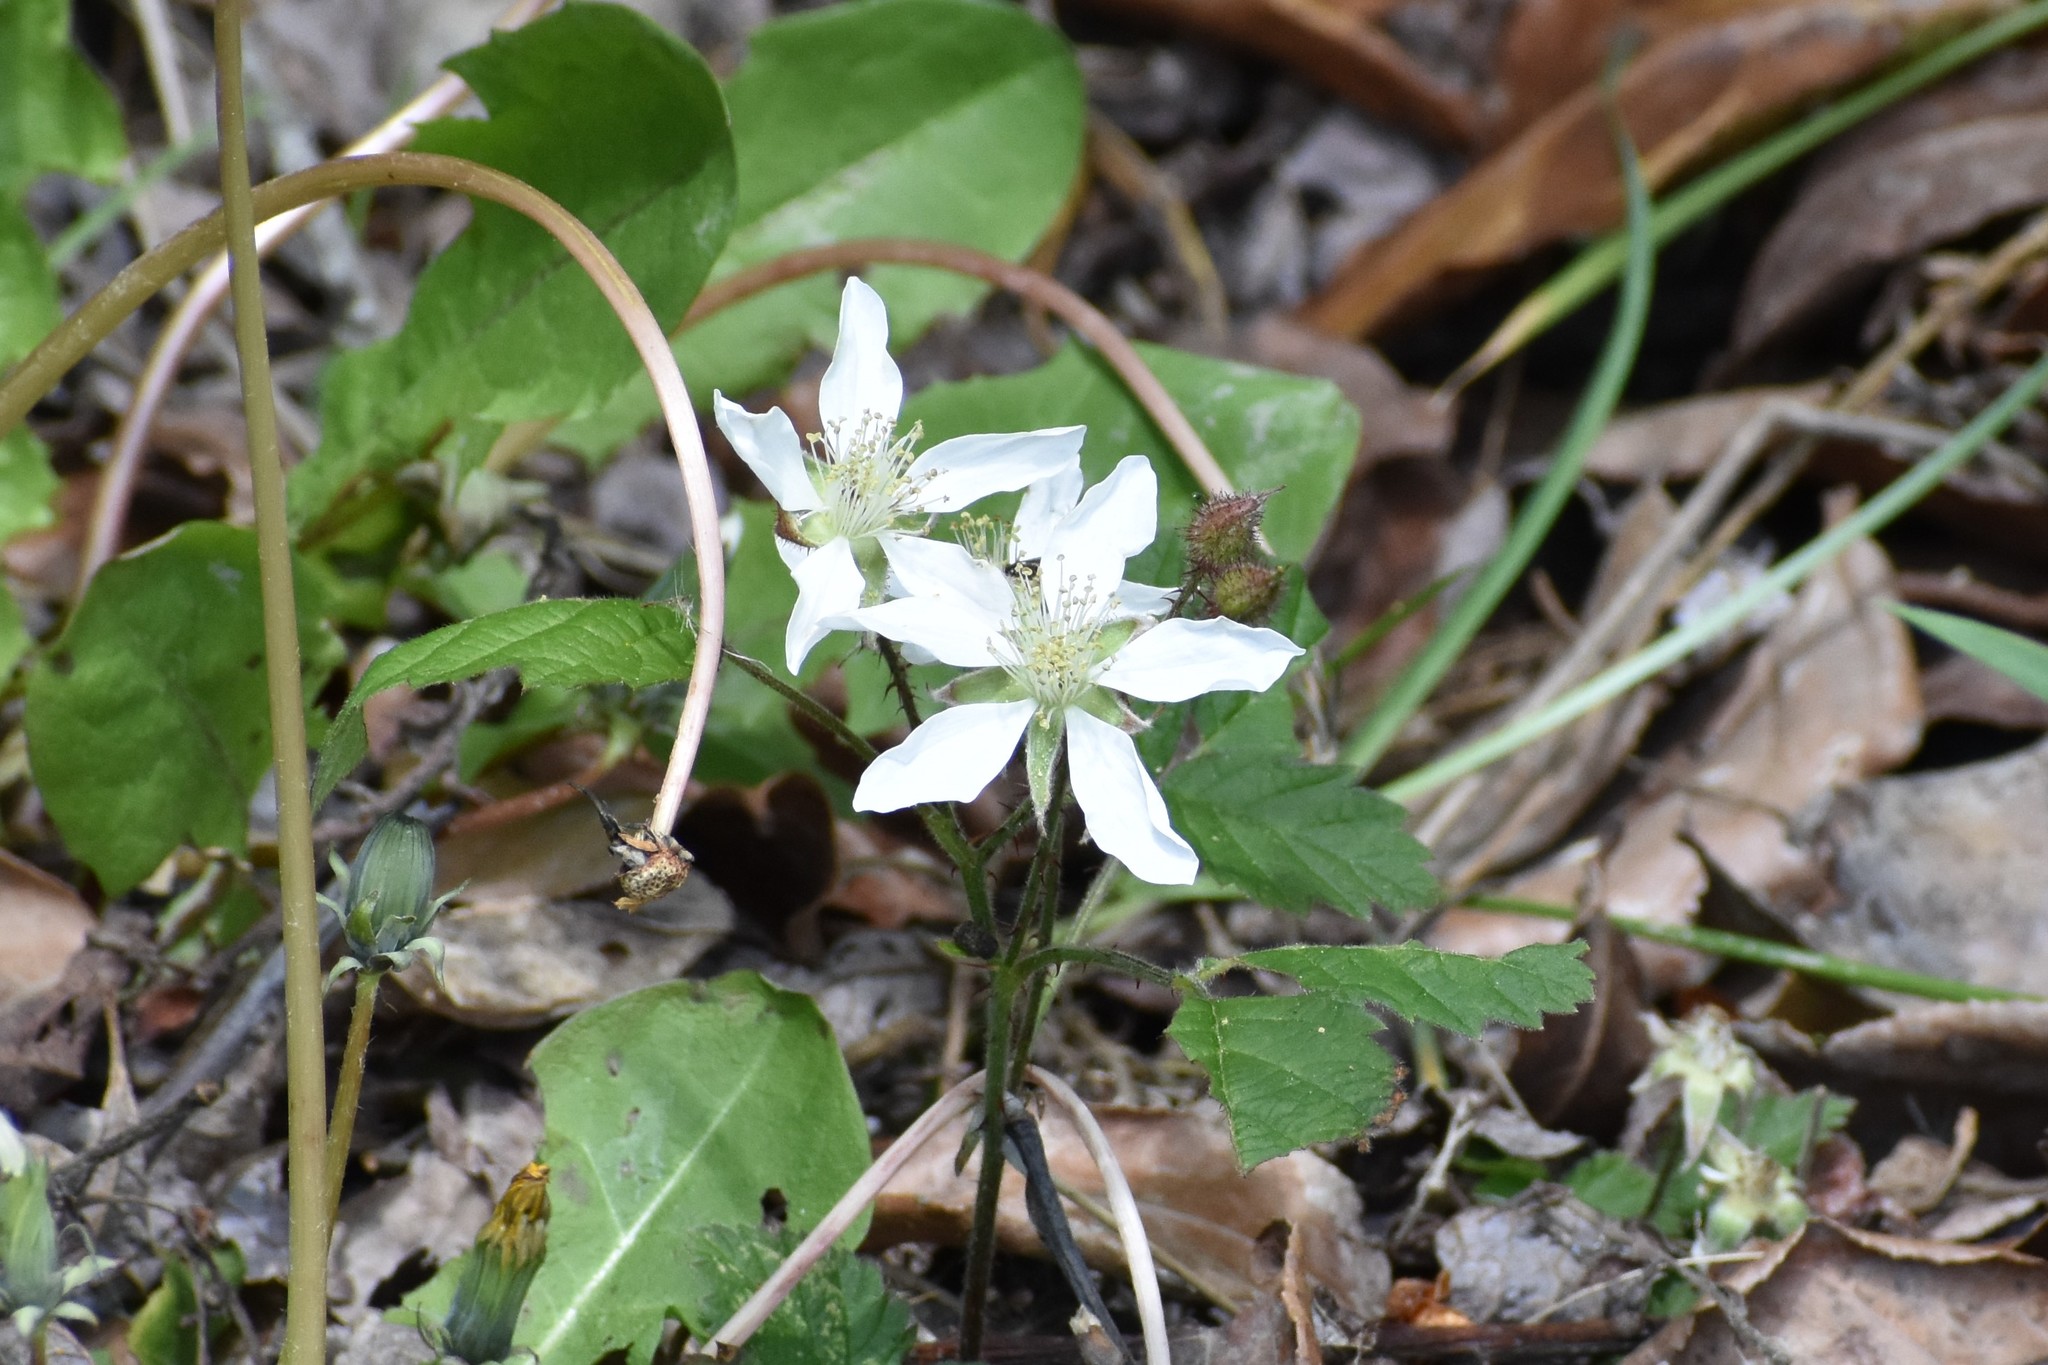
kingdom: Plantae
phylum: Tracheophyta
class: Magnoliopsida
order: Rosales
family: Rosaceae
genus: Rubus
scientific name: Rubus ursinus
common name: Pacific blackberry
